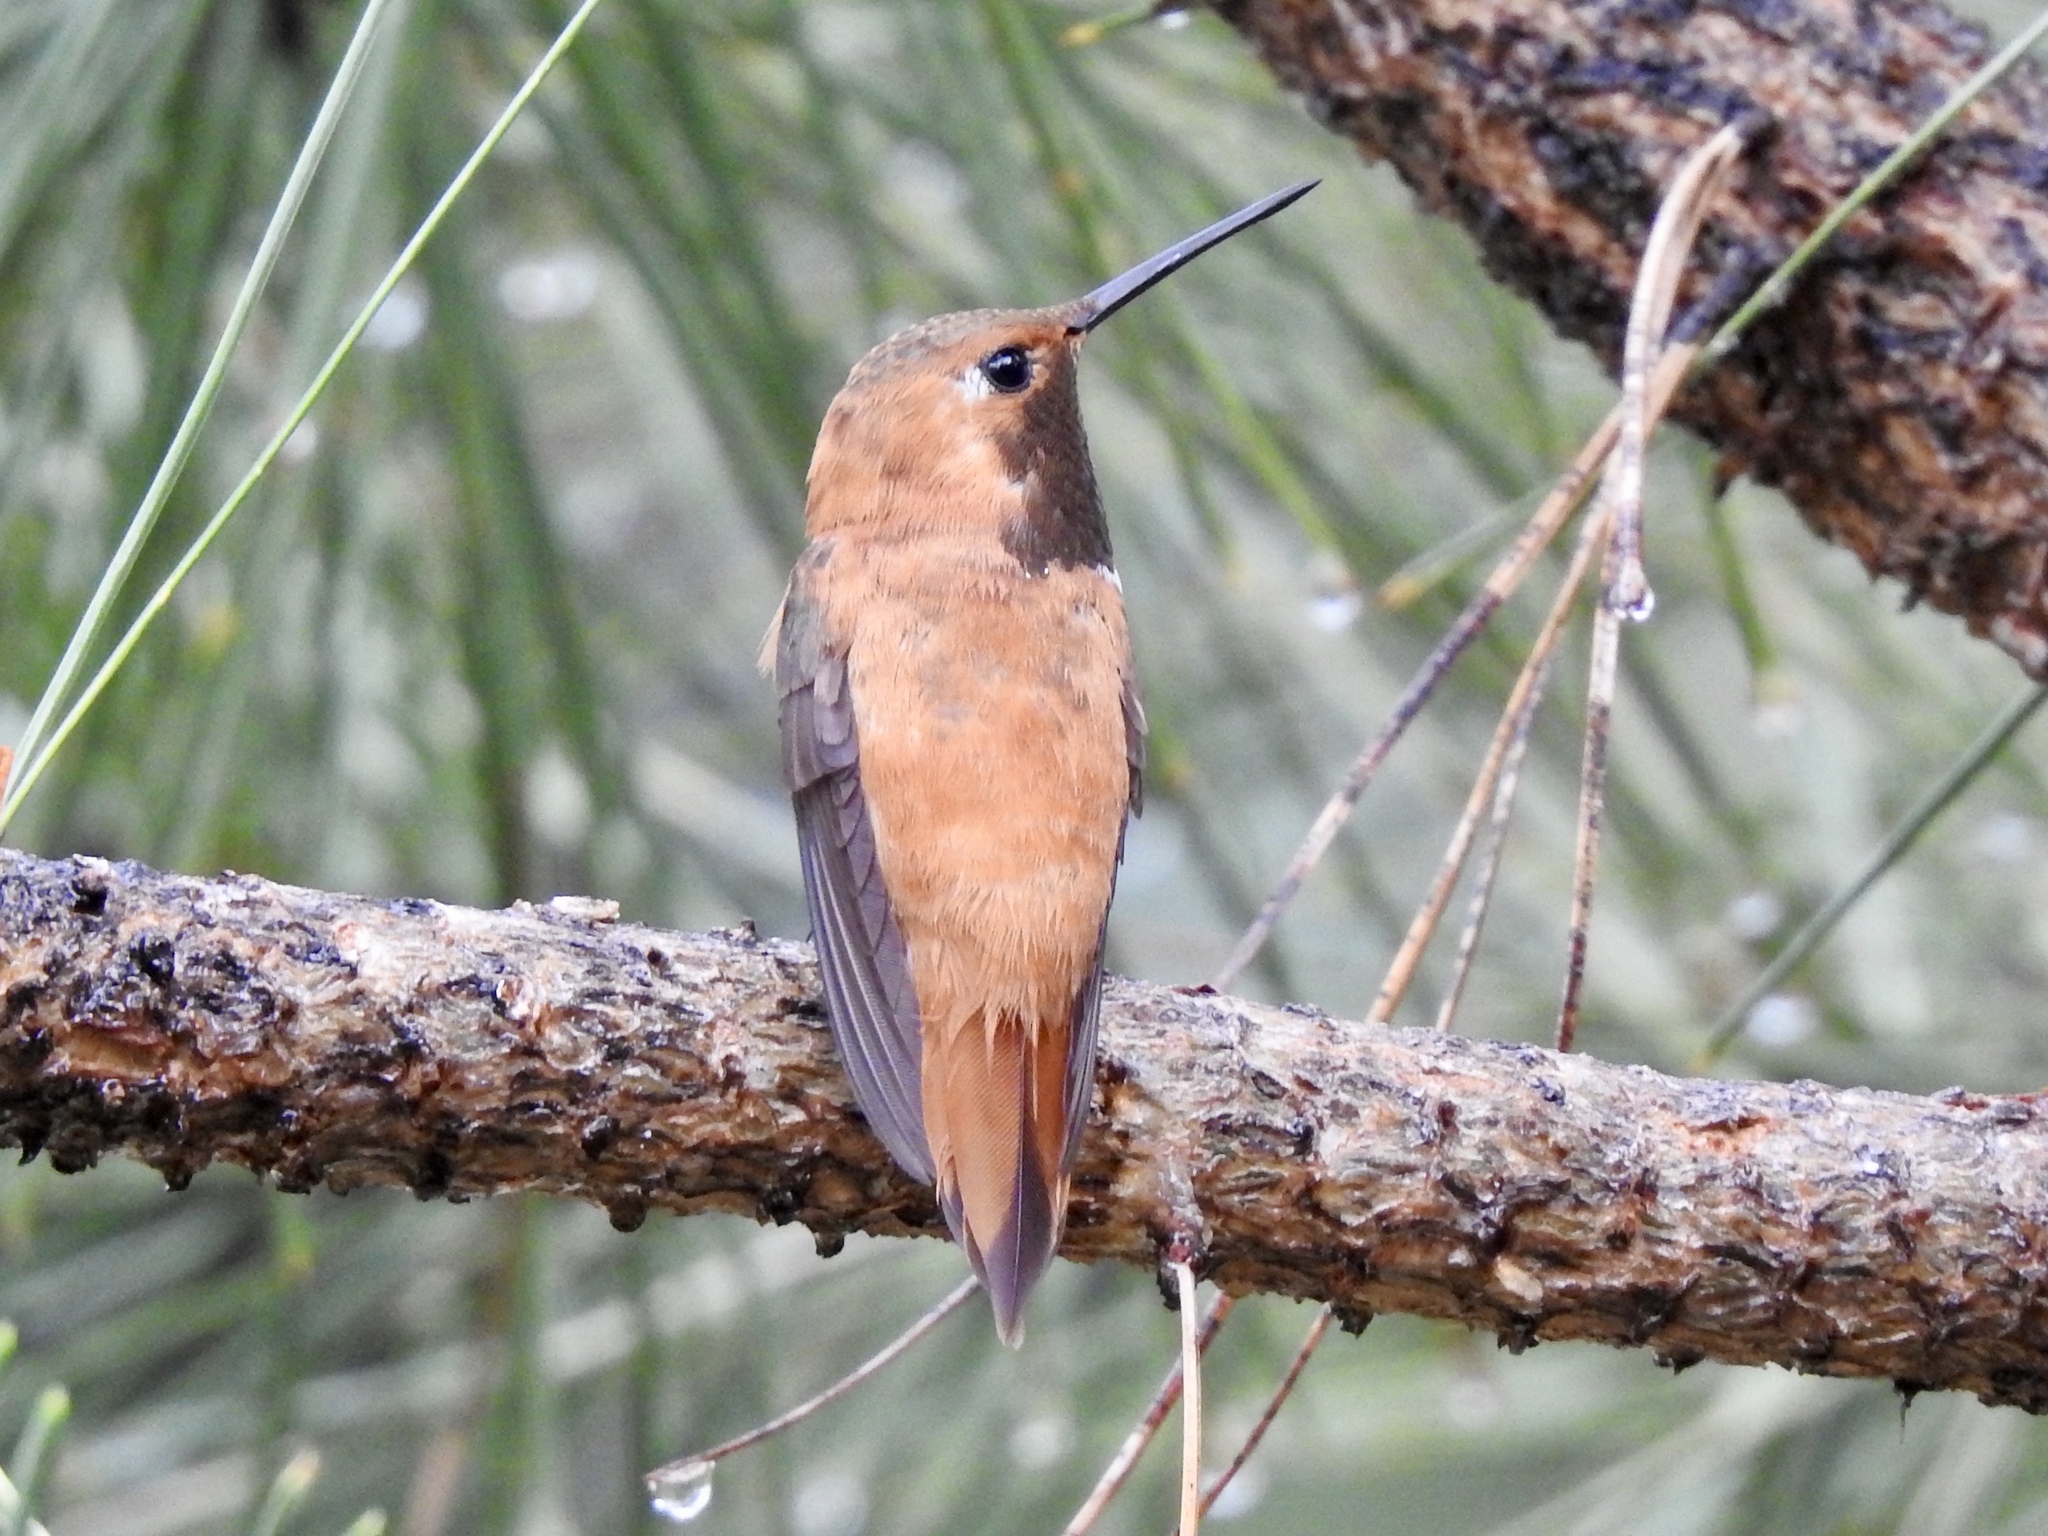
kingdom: Animalia
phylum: Chordata
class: Aves
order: Apodiformes
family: Trochilidae
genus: Selasphorus
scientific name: Selasphorus rufus
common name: Rufous hummingbird
